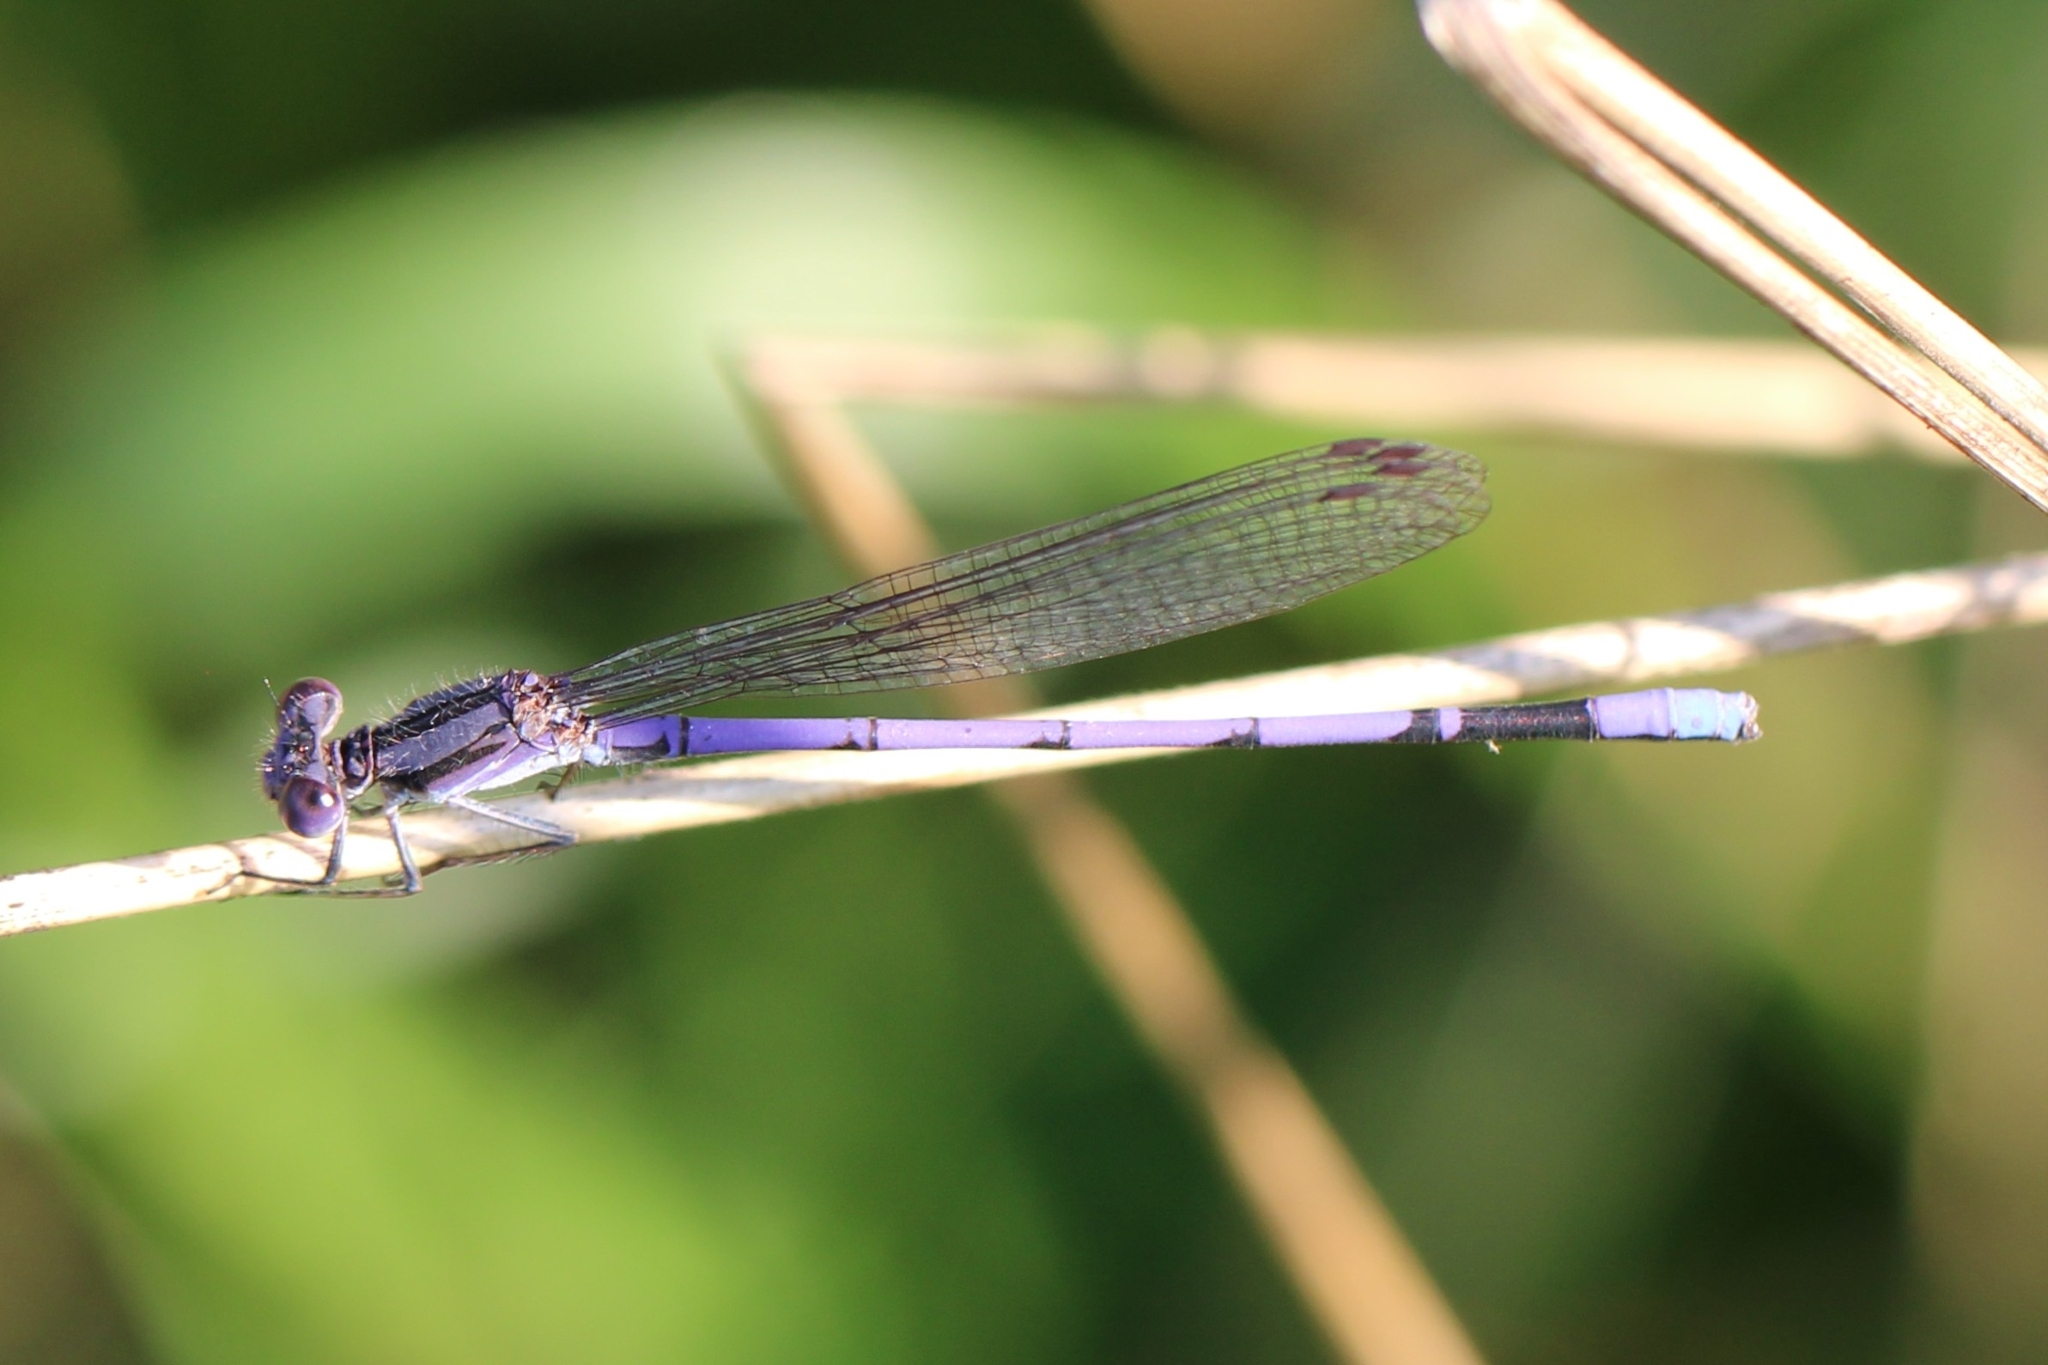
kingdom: Animalia
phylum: Arthropoda
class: Insecta
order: Odonata
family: Coenagrionidae
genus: Argia
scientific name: Argia fumipennis
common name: Variable dancer
